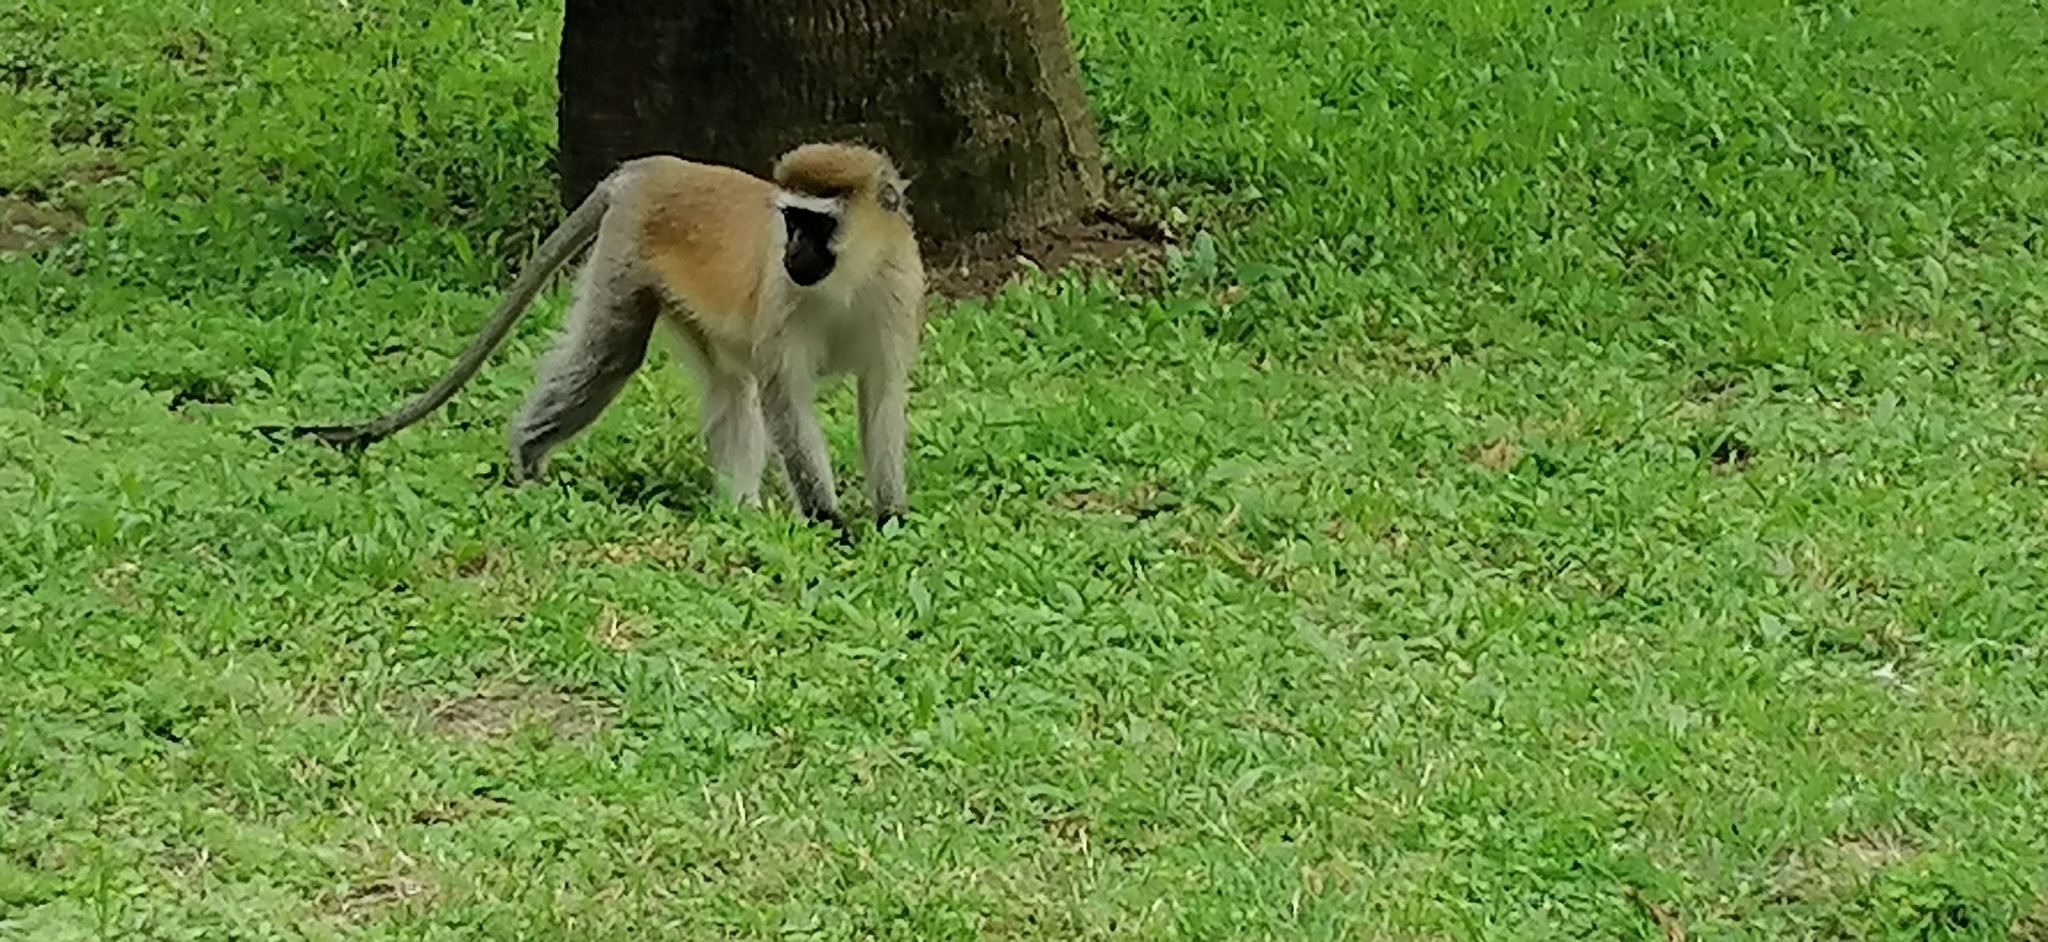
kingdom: Animalia
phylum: Chordata
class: Mammalia
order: Primates
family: Cercopithecidae
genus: Chlorocebus
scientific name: Chlorocebus pygerythrus
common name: Vervet monkey
